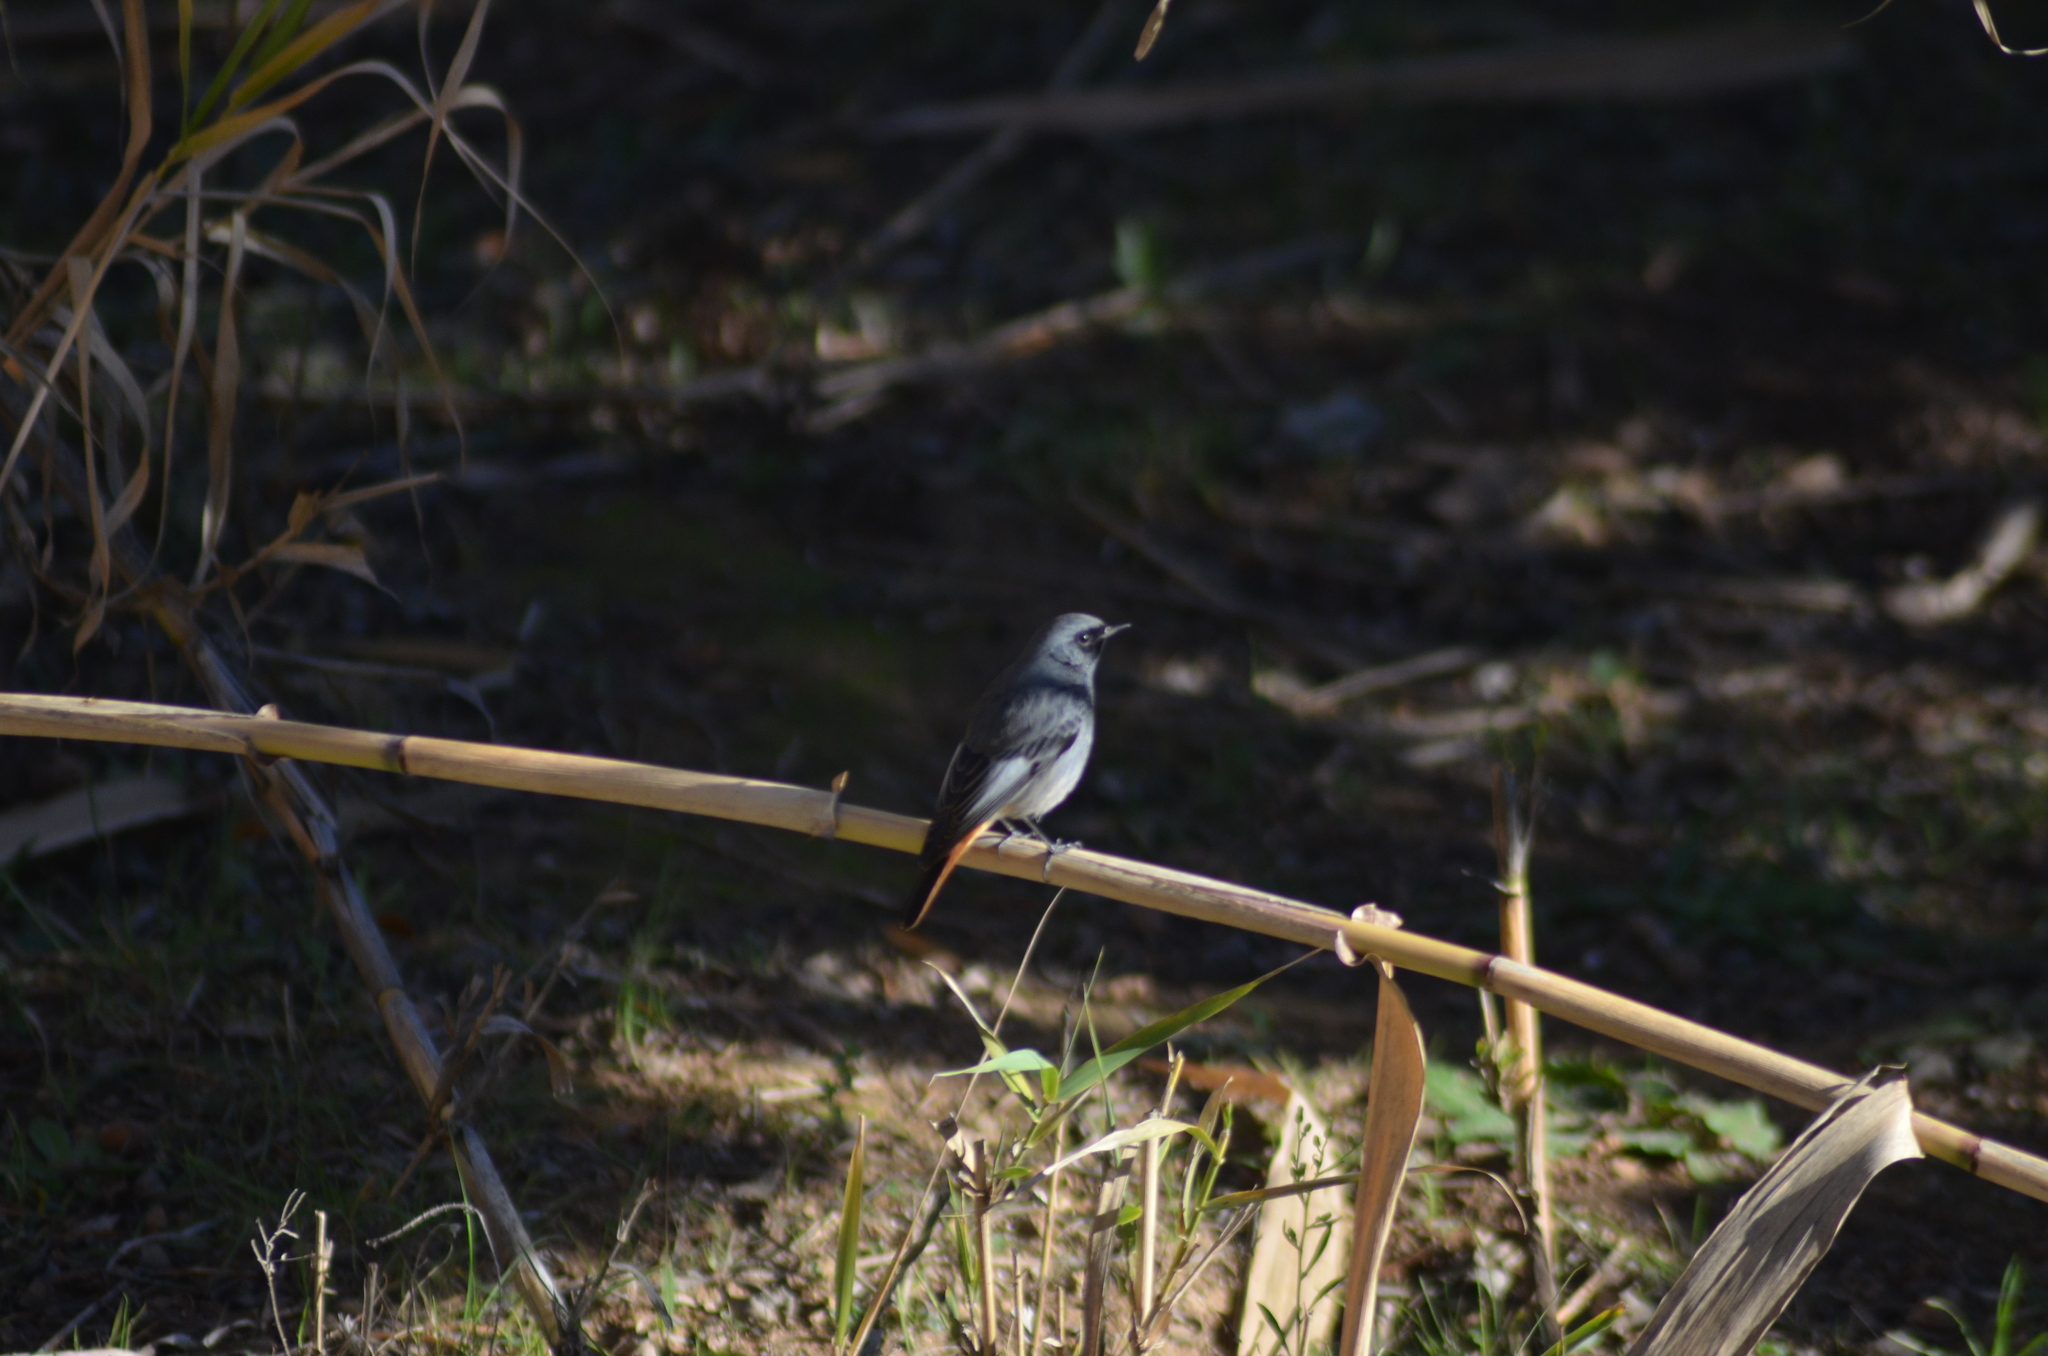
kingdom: Animalia
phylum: Chordata
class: Aves
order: Passeriformes
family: Muscicapidae
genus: Phoenicurus
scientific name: Phoenicurus ochruros
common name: Black redstart
